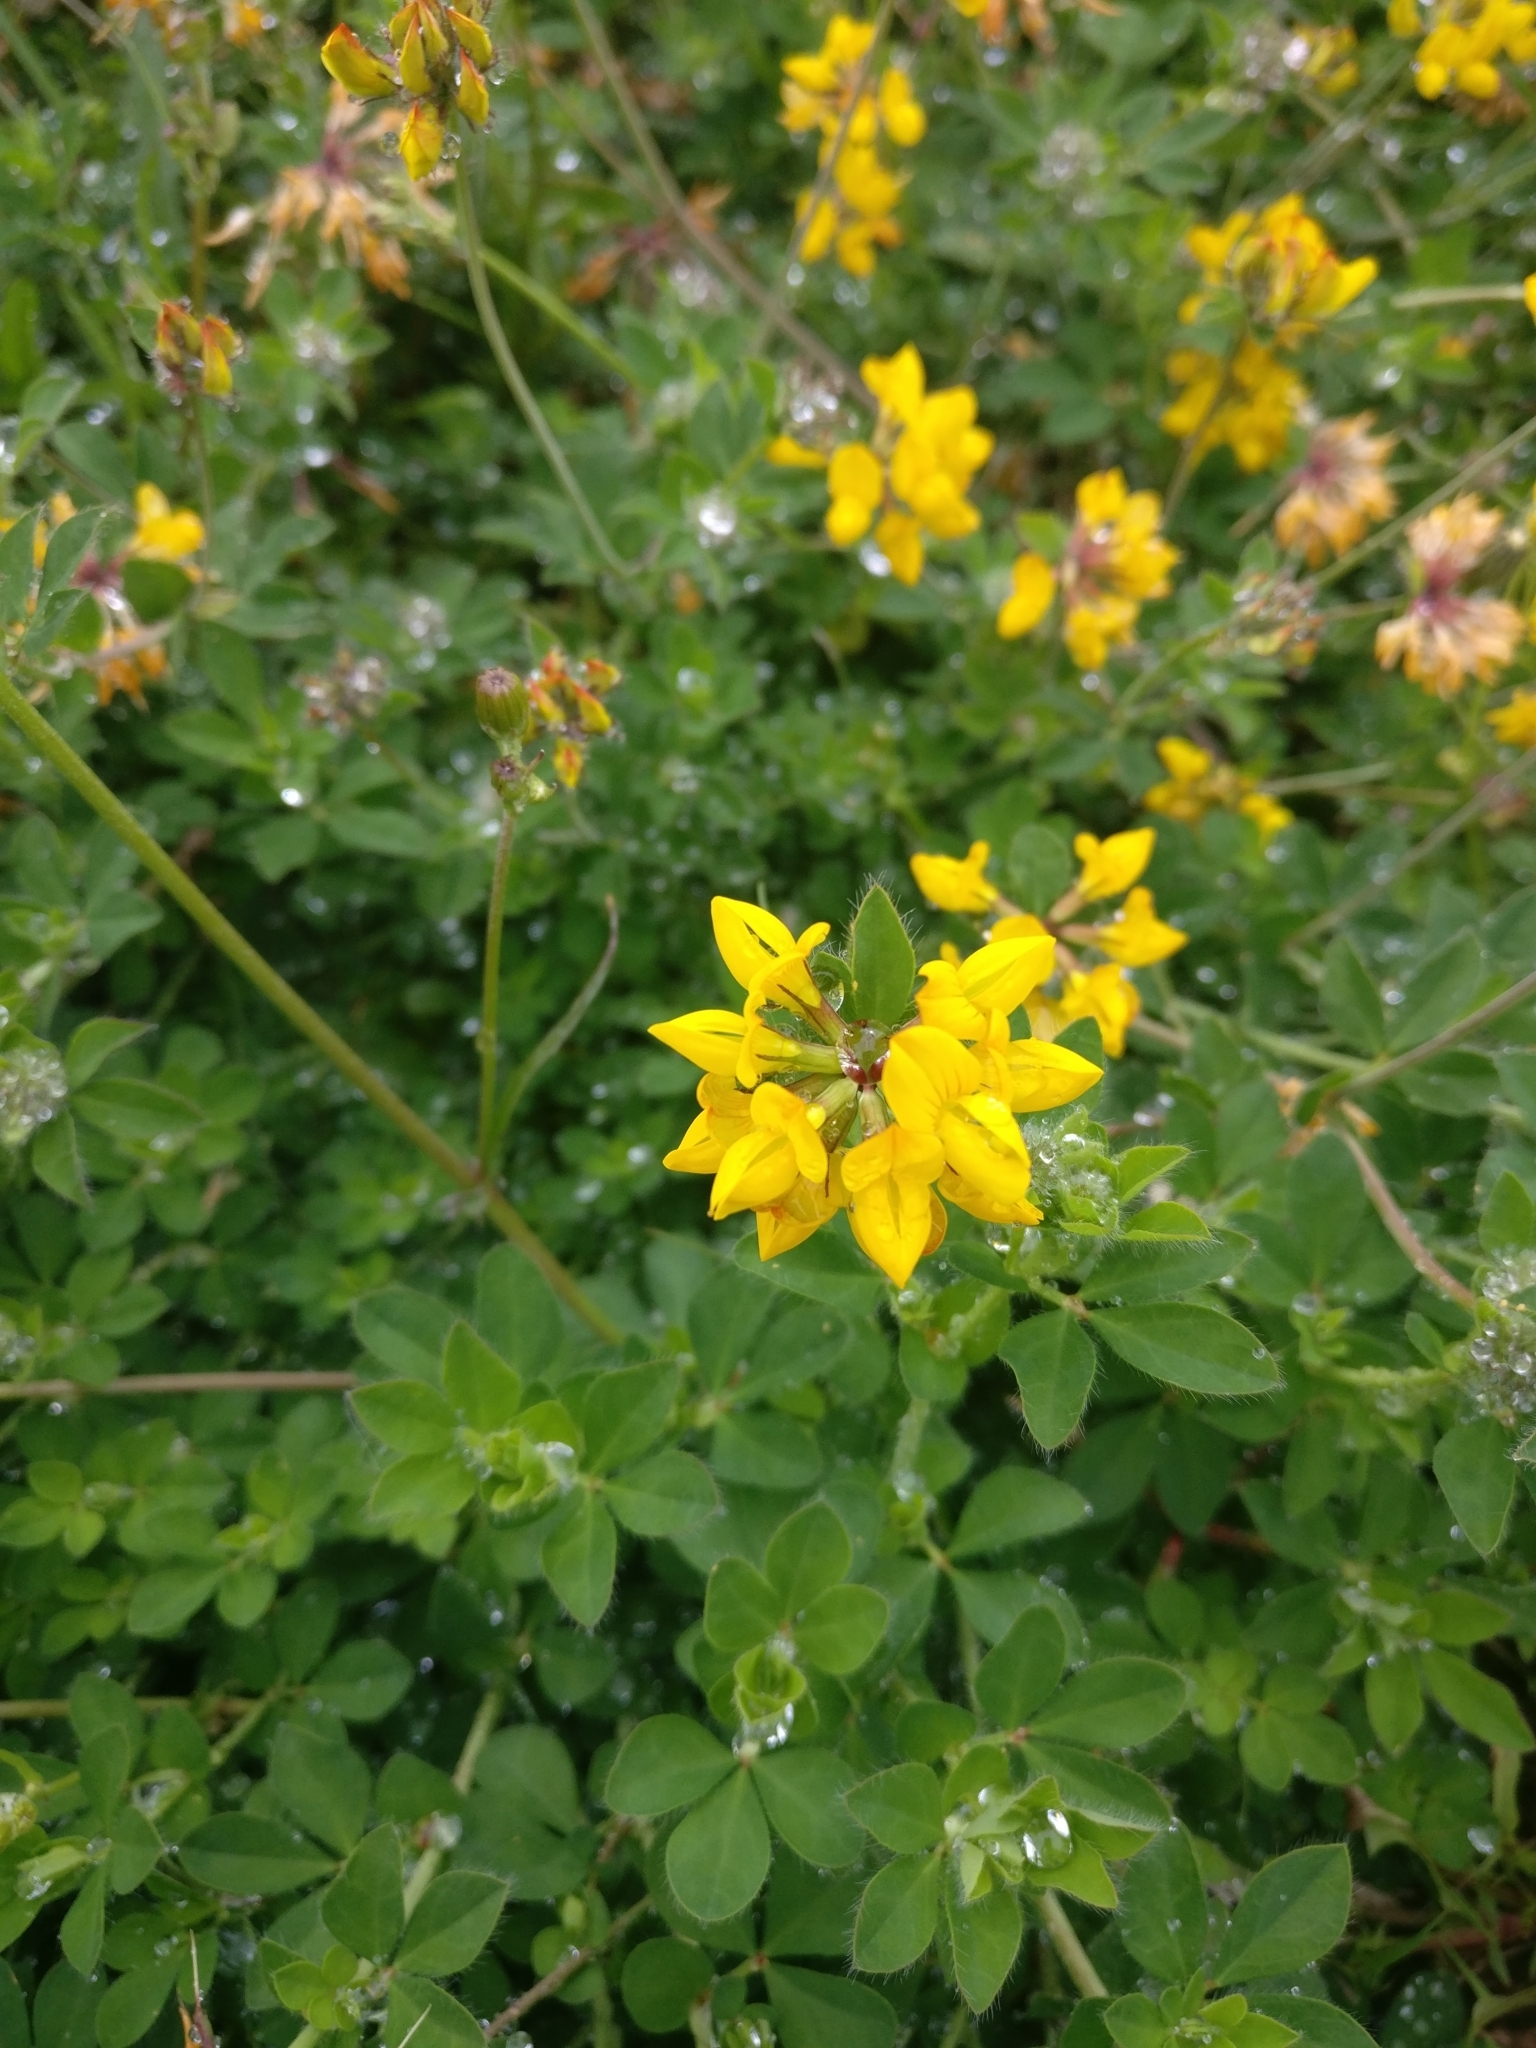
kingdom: Plantae
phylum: Tracheophyta
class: Magnoliopsida
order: Fabales
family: Fabaceae
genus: Lotus
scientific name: Lotus pedunculatus
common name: Greater birdsfoot-trefoil
